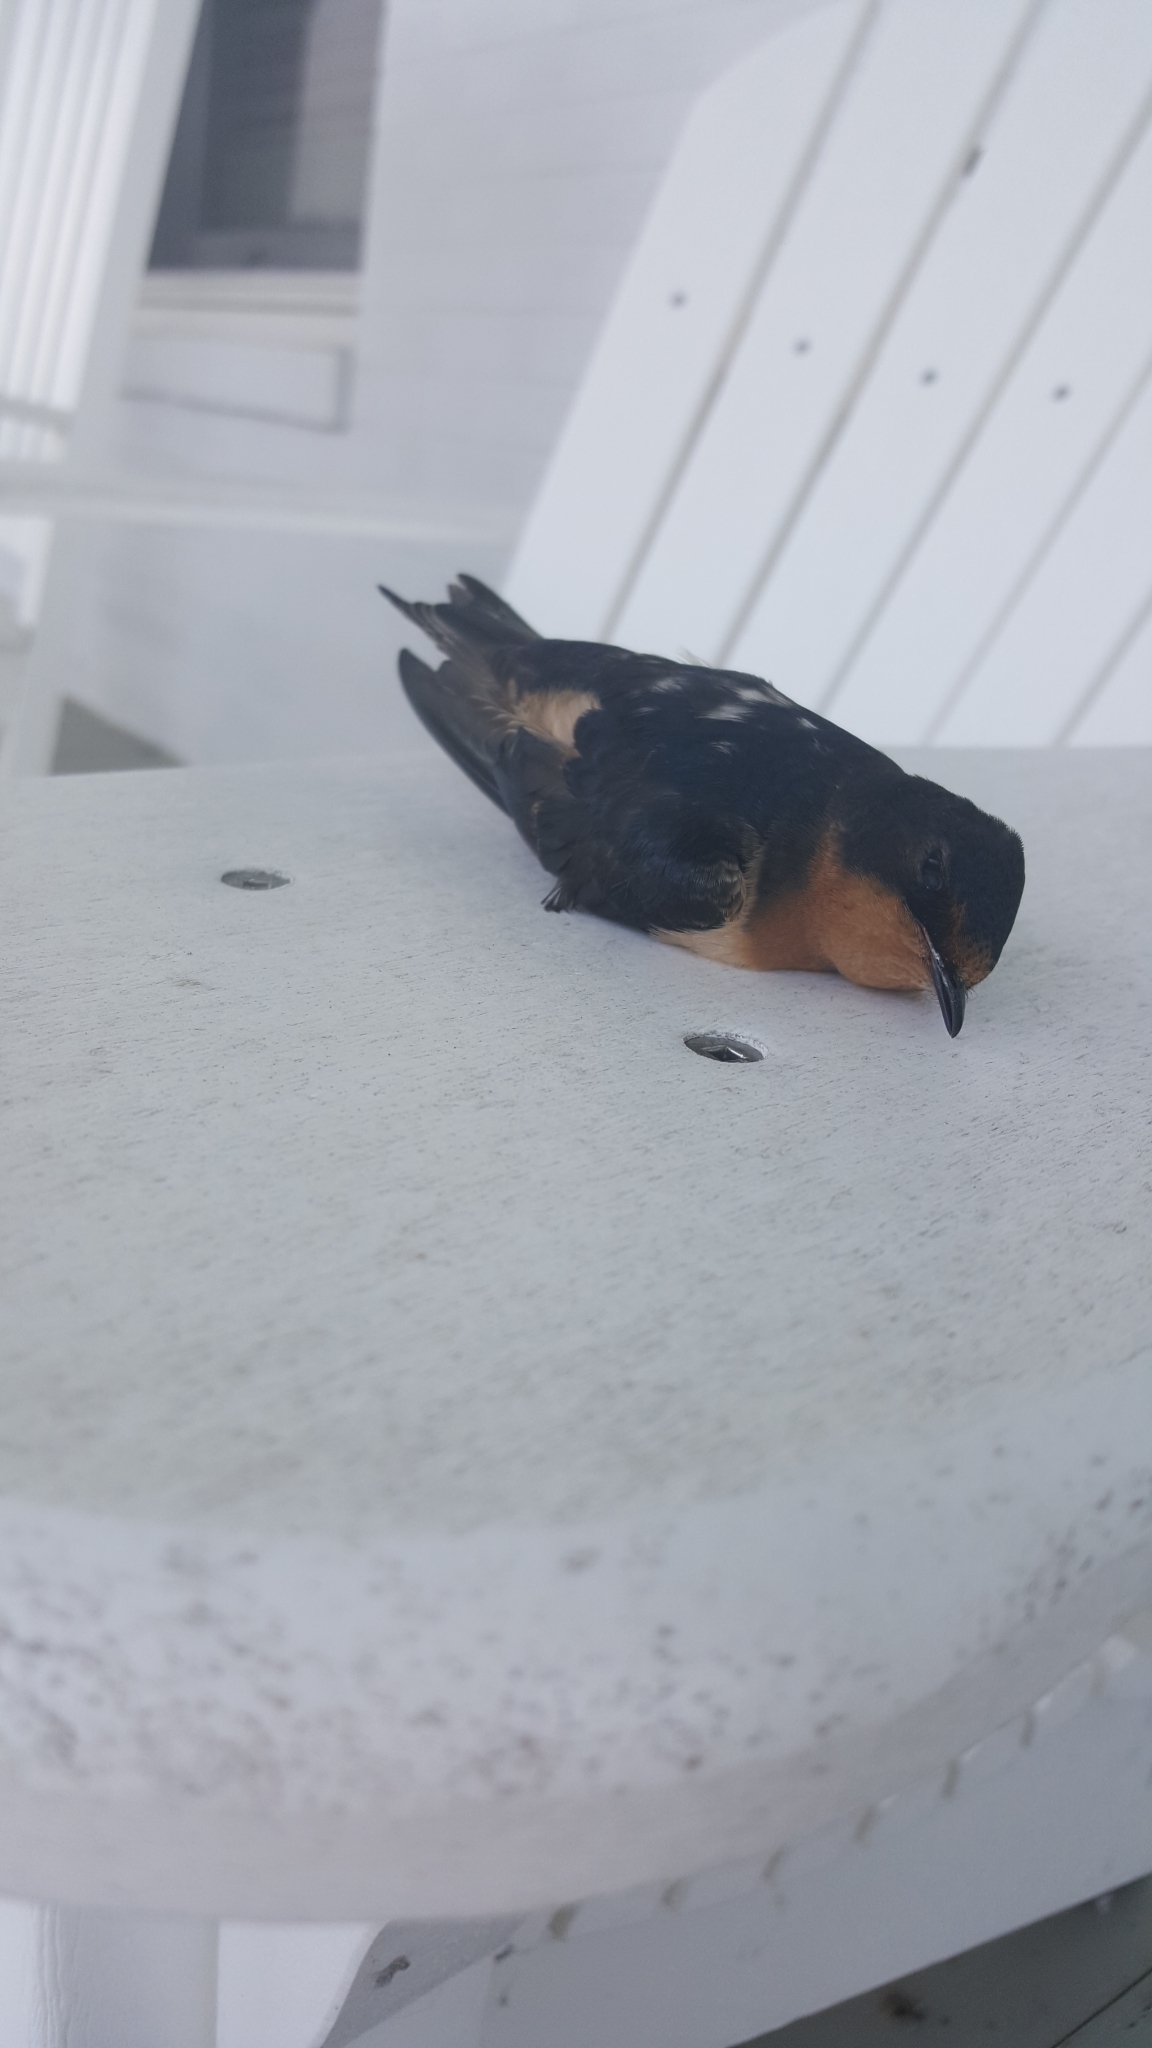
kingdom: Animalia
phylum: Chordata
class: Aves
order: Passeriformes
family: Hirundinidae
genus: Hirundo
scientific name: Hirundo rustica
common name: Barn swallow
